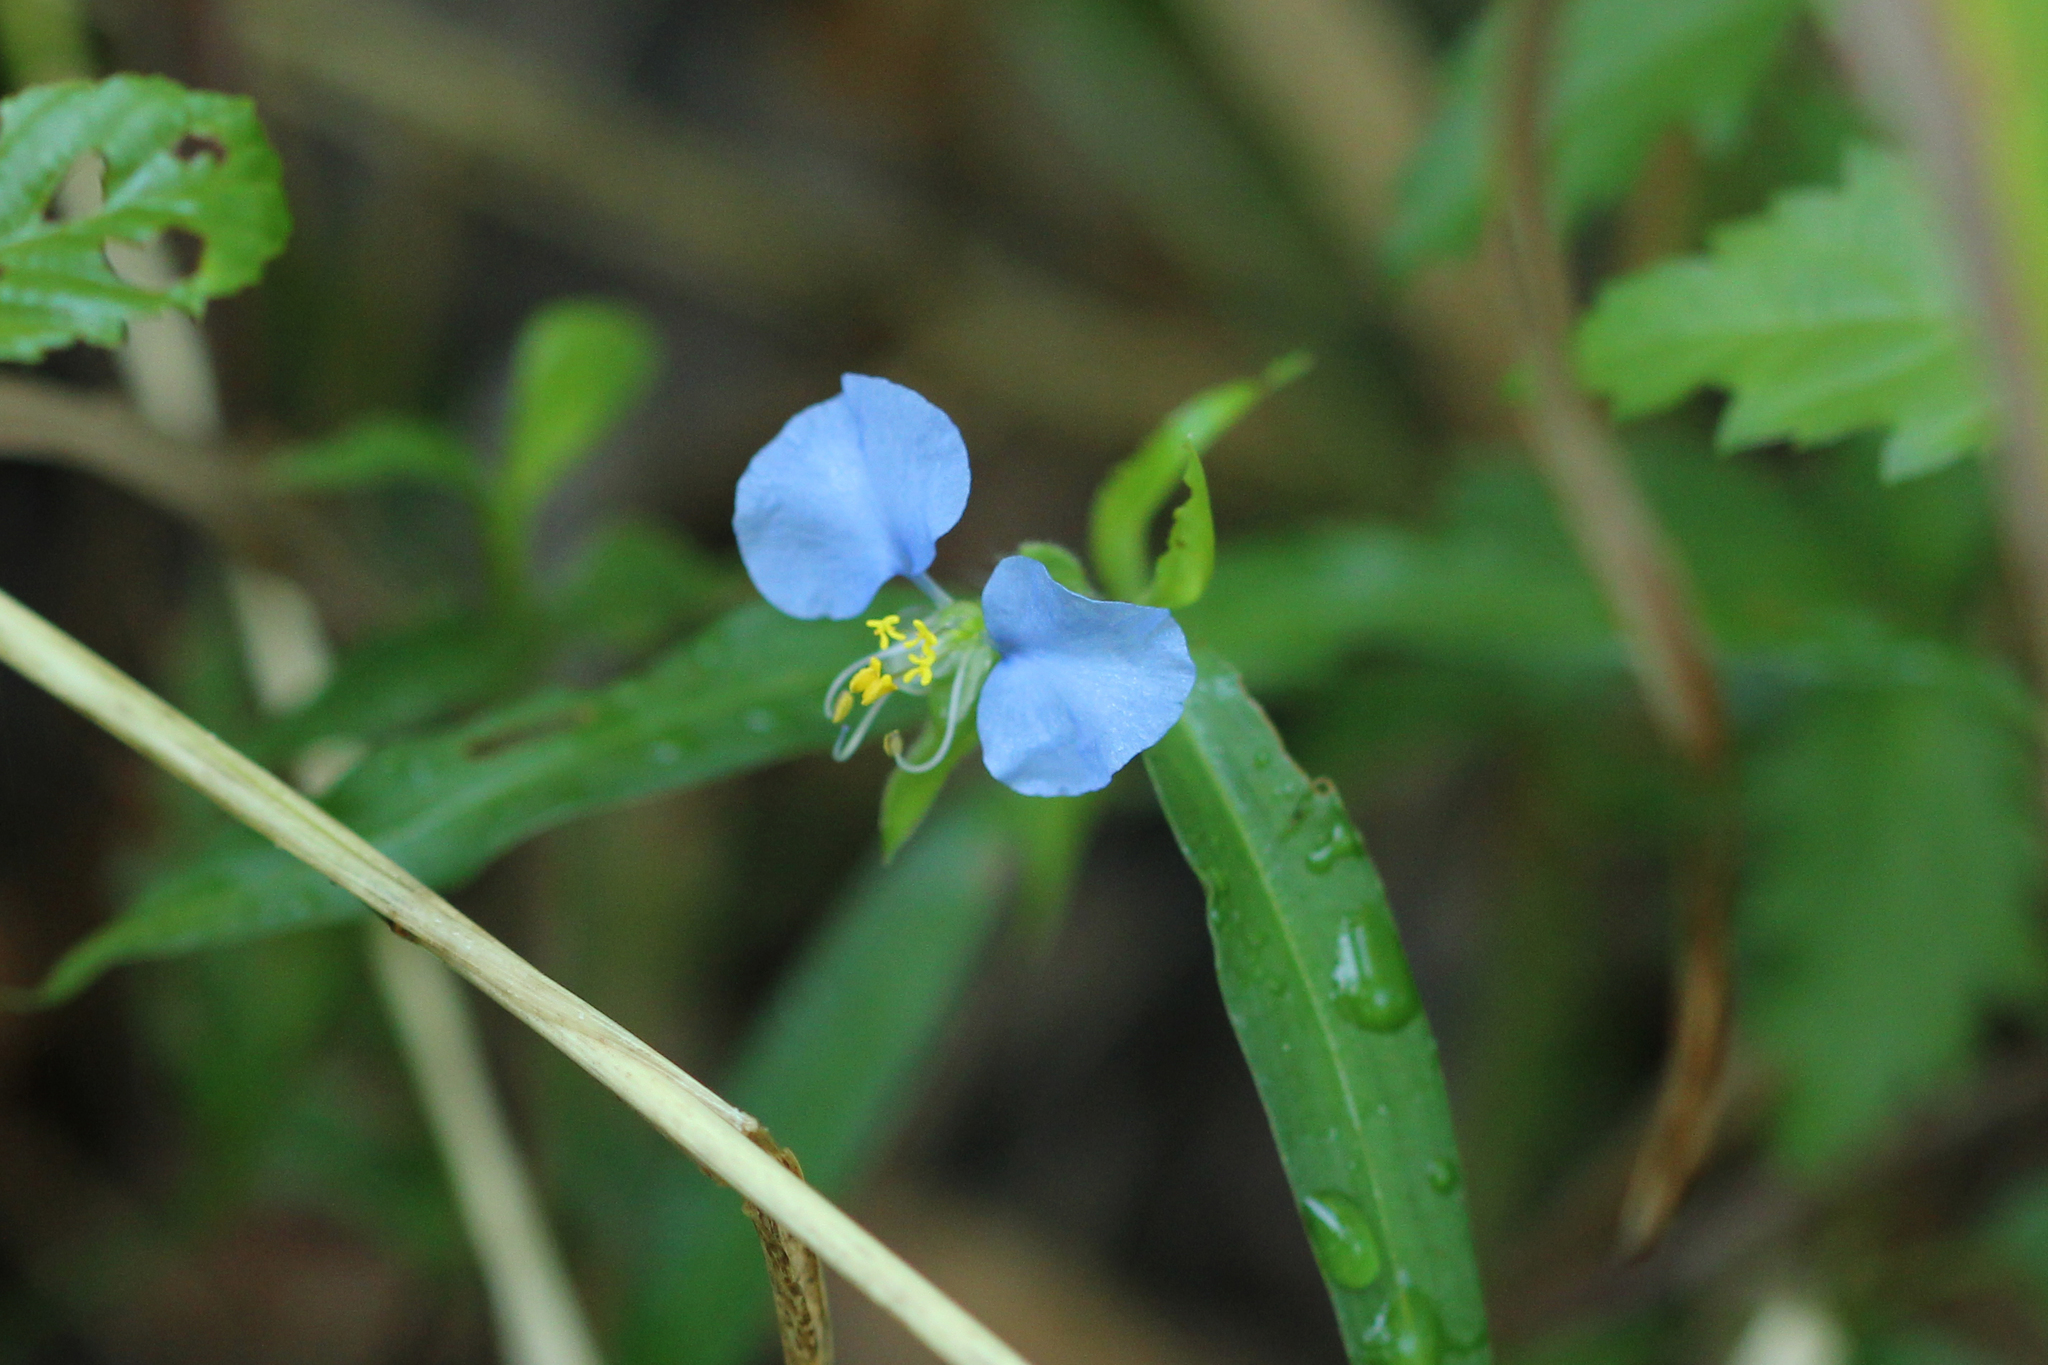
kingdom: Plantae
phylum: Tracheophyta
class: Liliopsida
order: Commelinales
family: Commelinaceae
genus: Commelina
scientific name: Commelina erecta
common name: Blousel blommetjie
